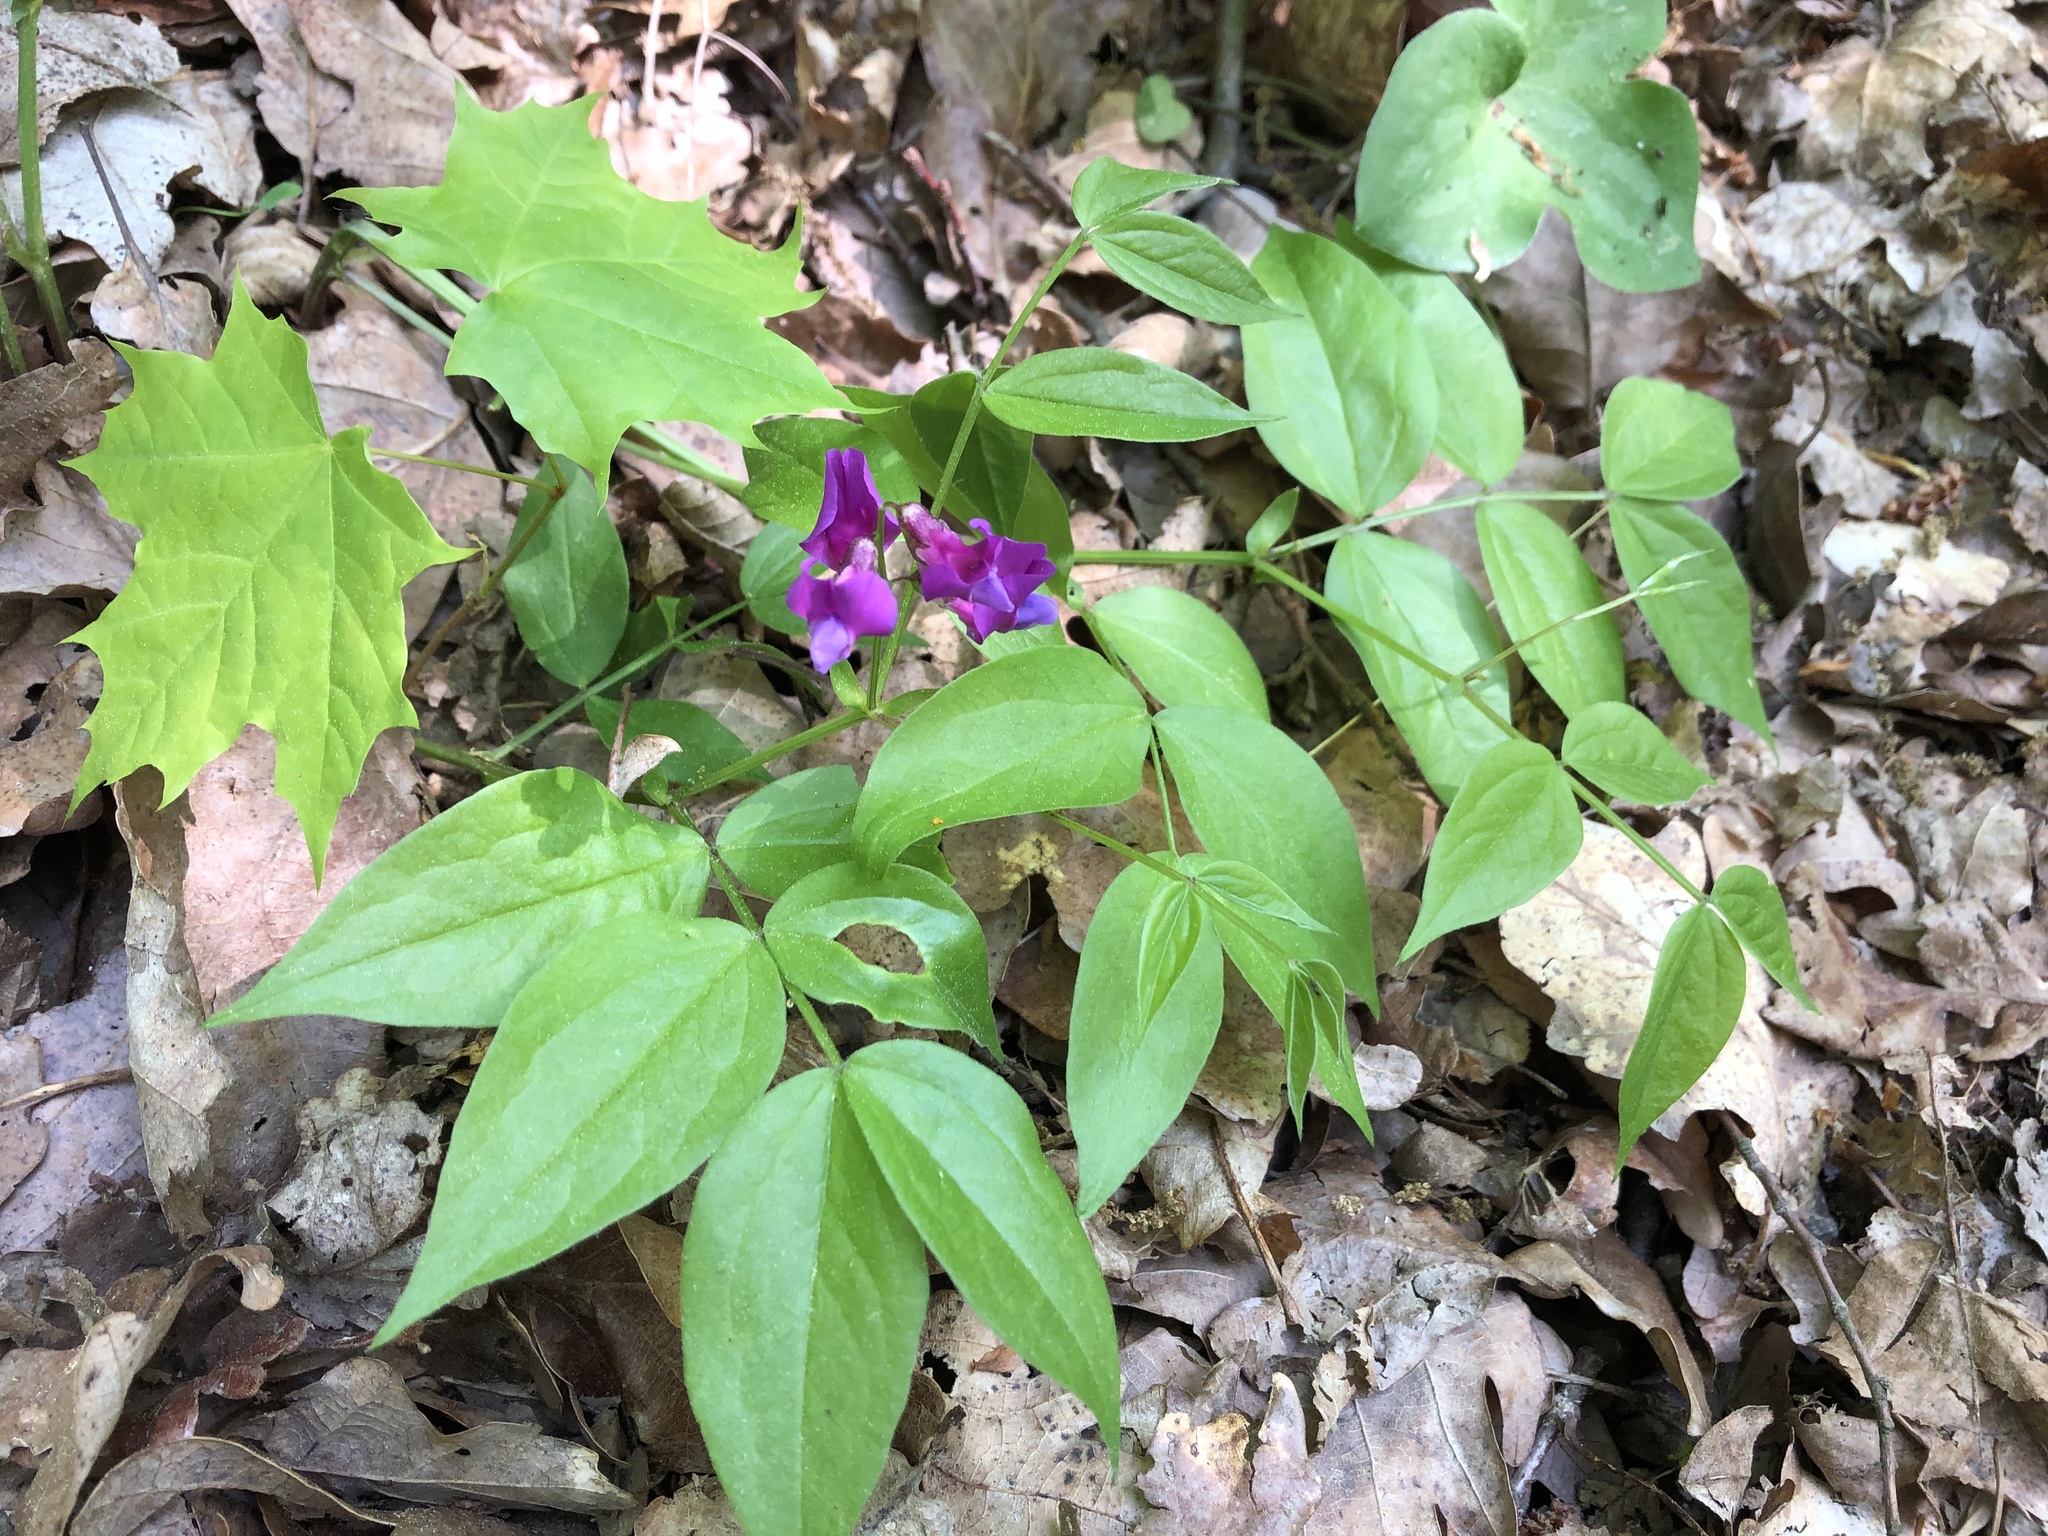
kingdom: Plantae
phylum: Tracheophyta
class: Magnoliopsida
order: Fabales
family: Fabaceae
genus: Lathyrus
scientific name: Lathyrus vernus
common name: Spring pea
